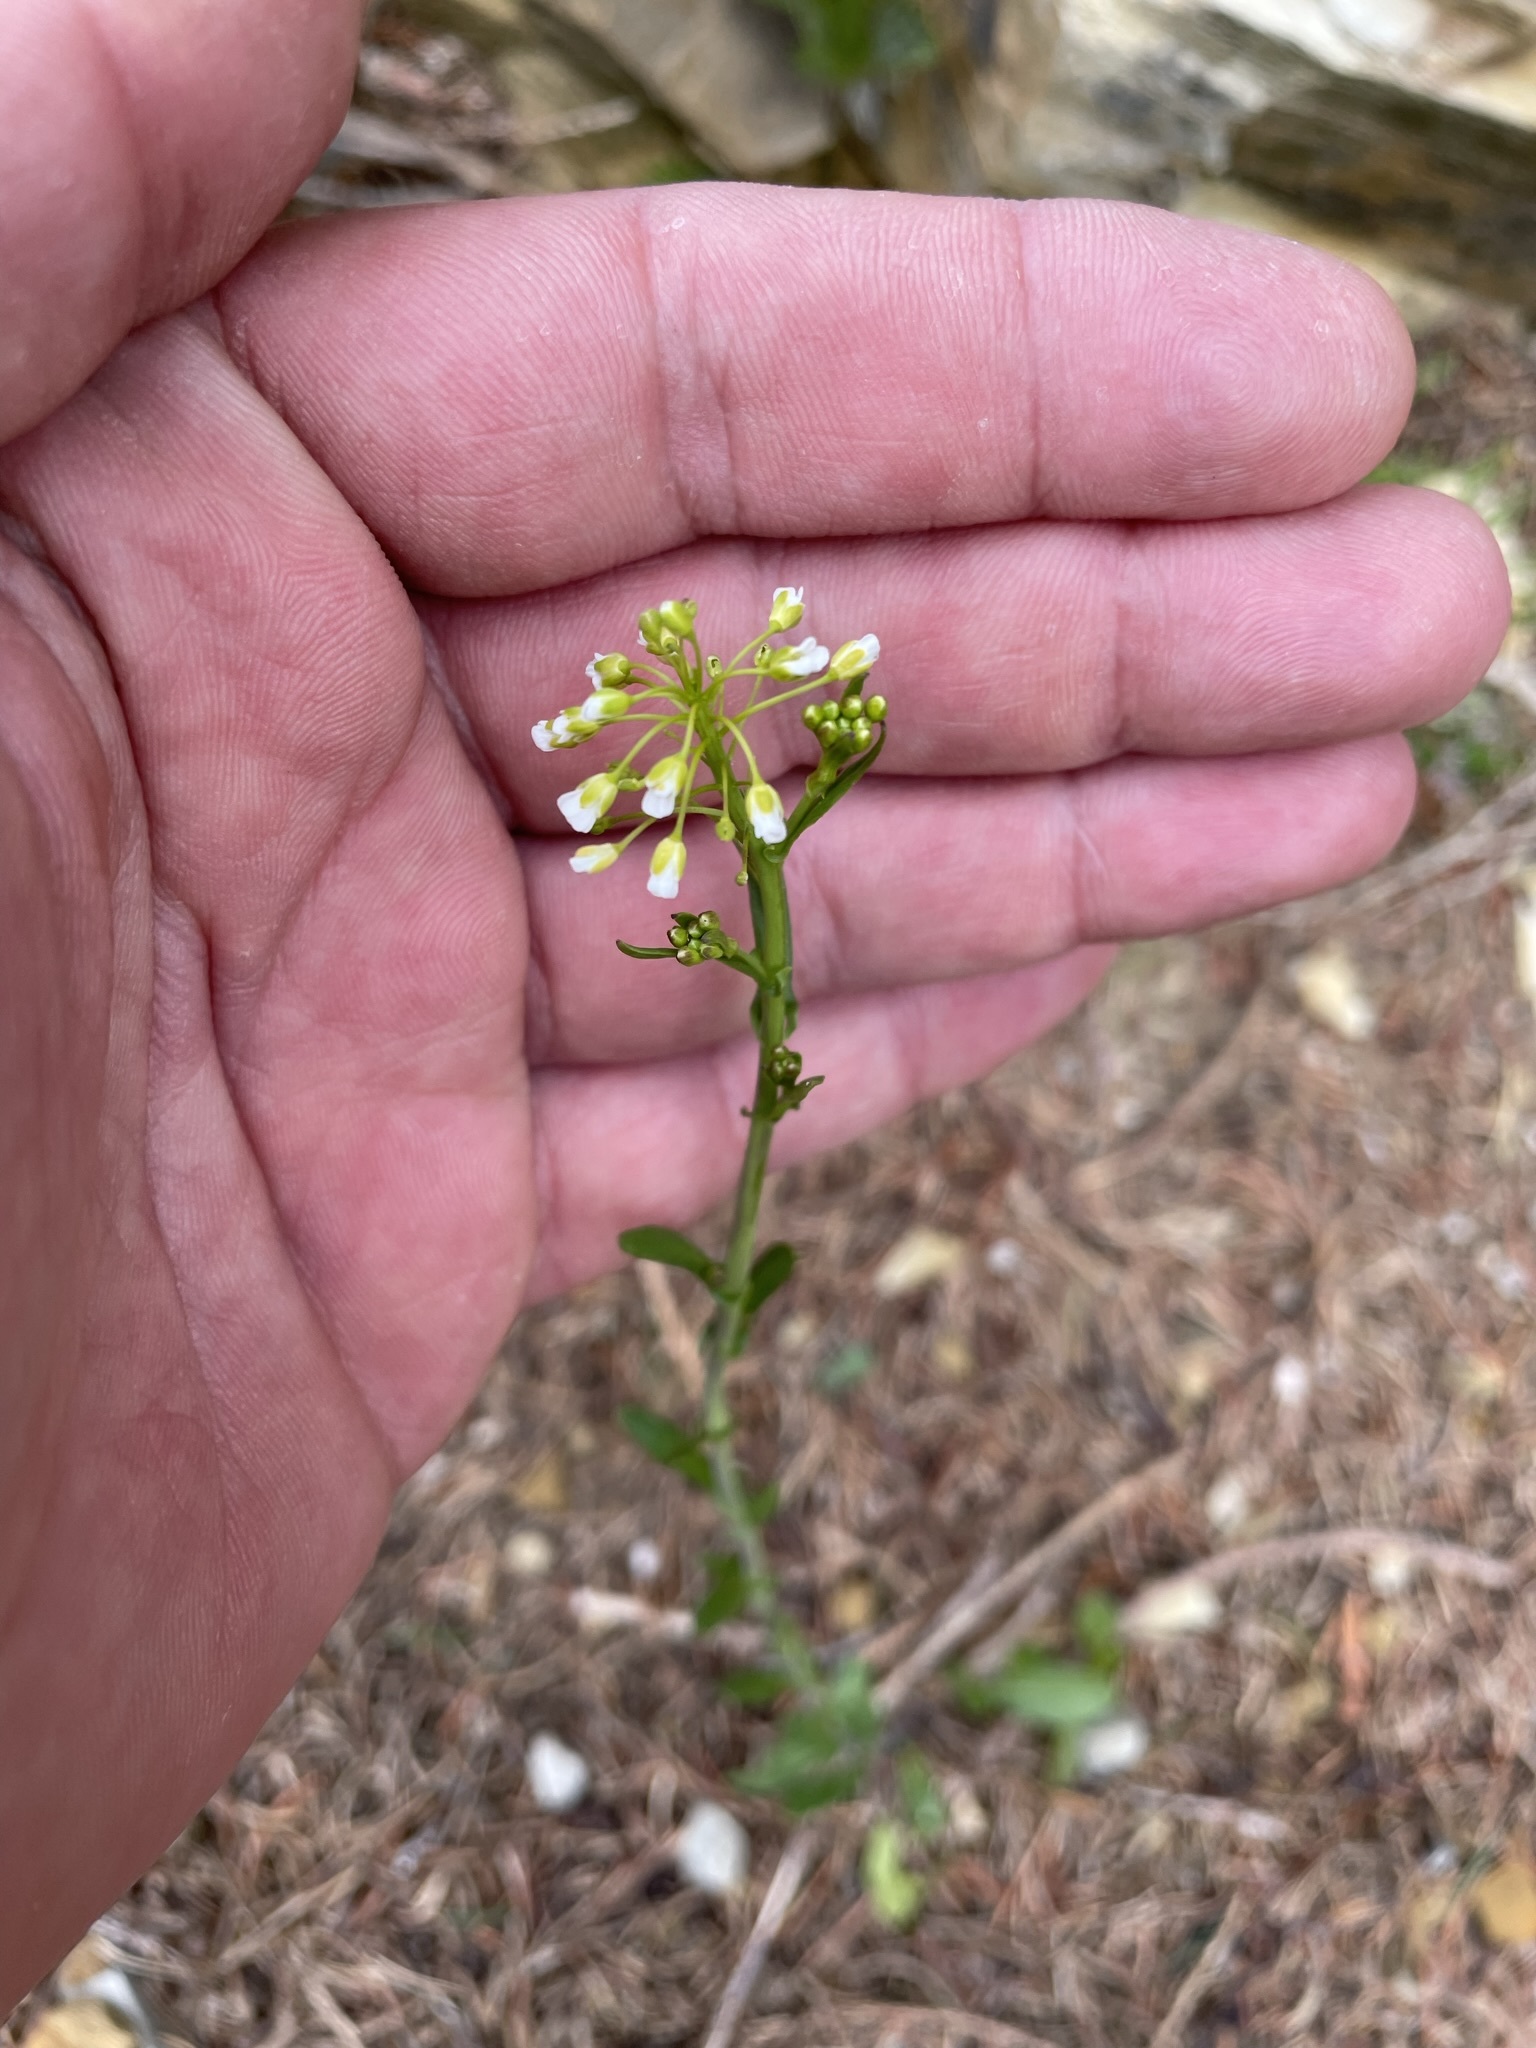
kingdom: Plantae
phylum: Tracheophyta
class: Magnoliopsida
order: Brassicales
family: Brassicaceae
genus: Mummenhoffia
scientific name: Mummenhoffia alliacea
